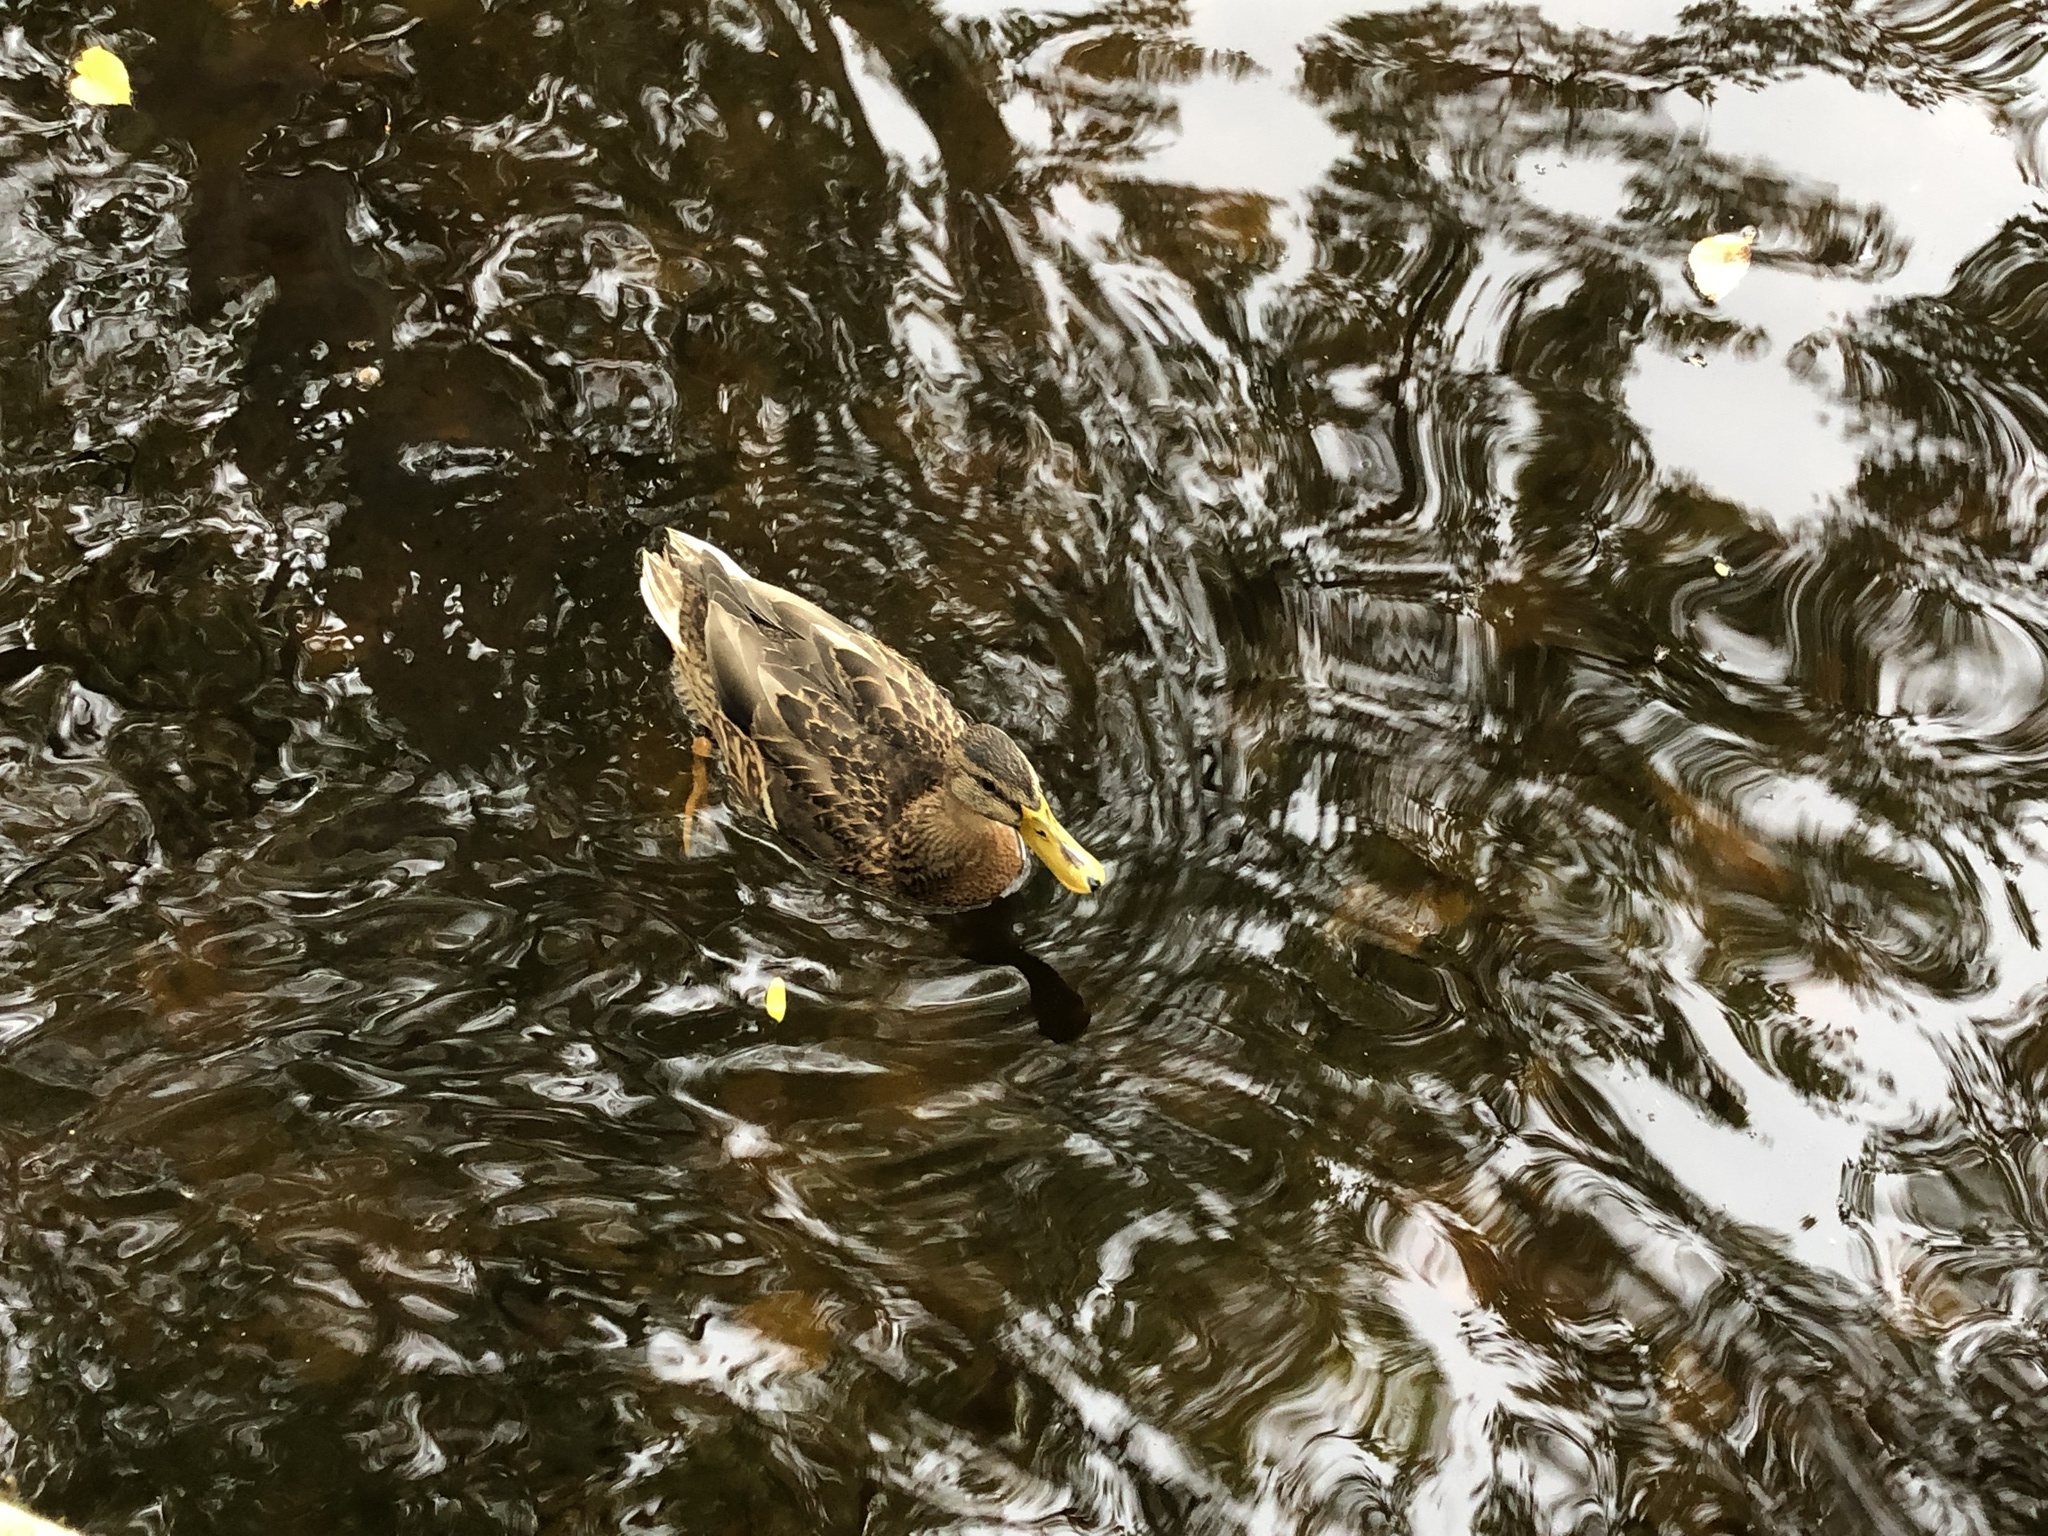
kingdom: Animalia
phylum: Chordata
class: Aves
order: Anseriformes
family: Anatidae
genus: Anas
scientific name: Anas platyrhynchos
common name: Mallard
